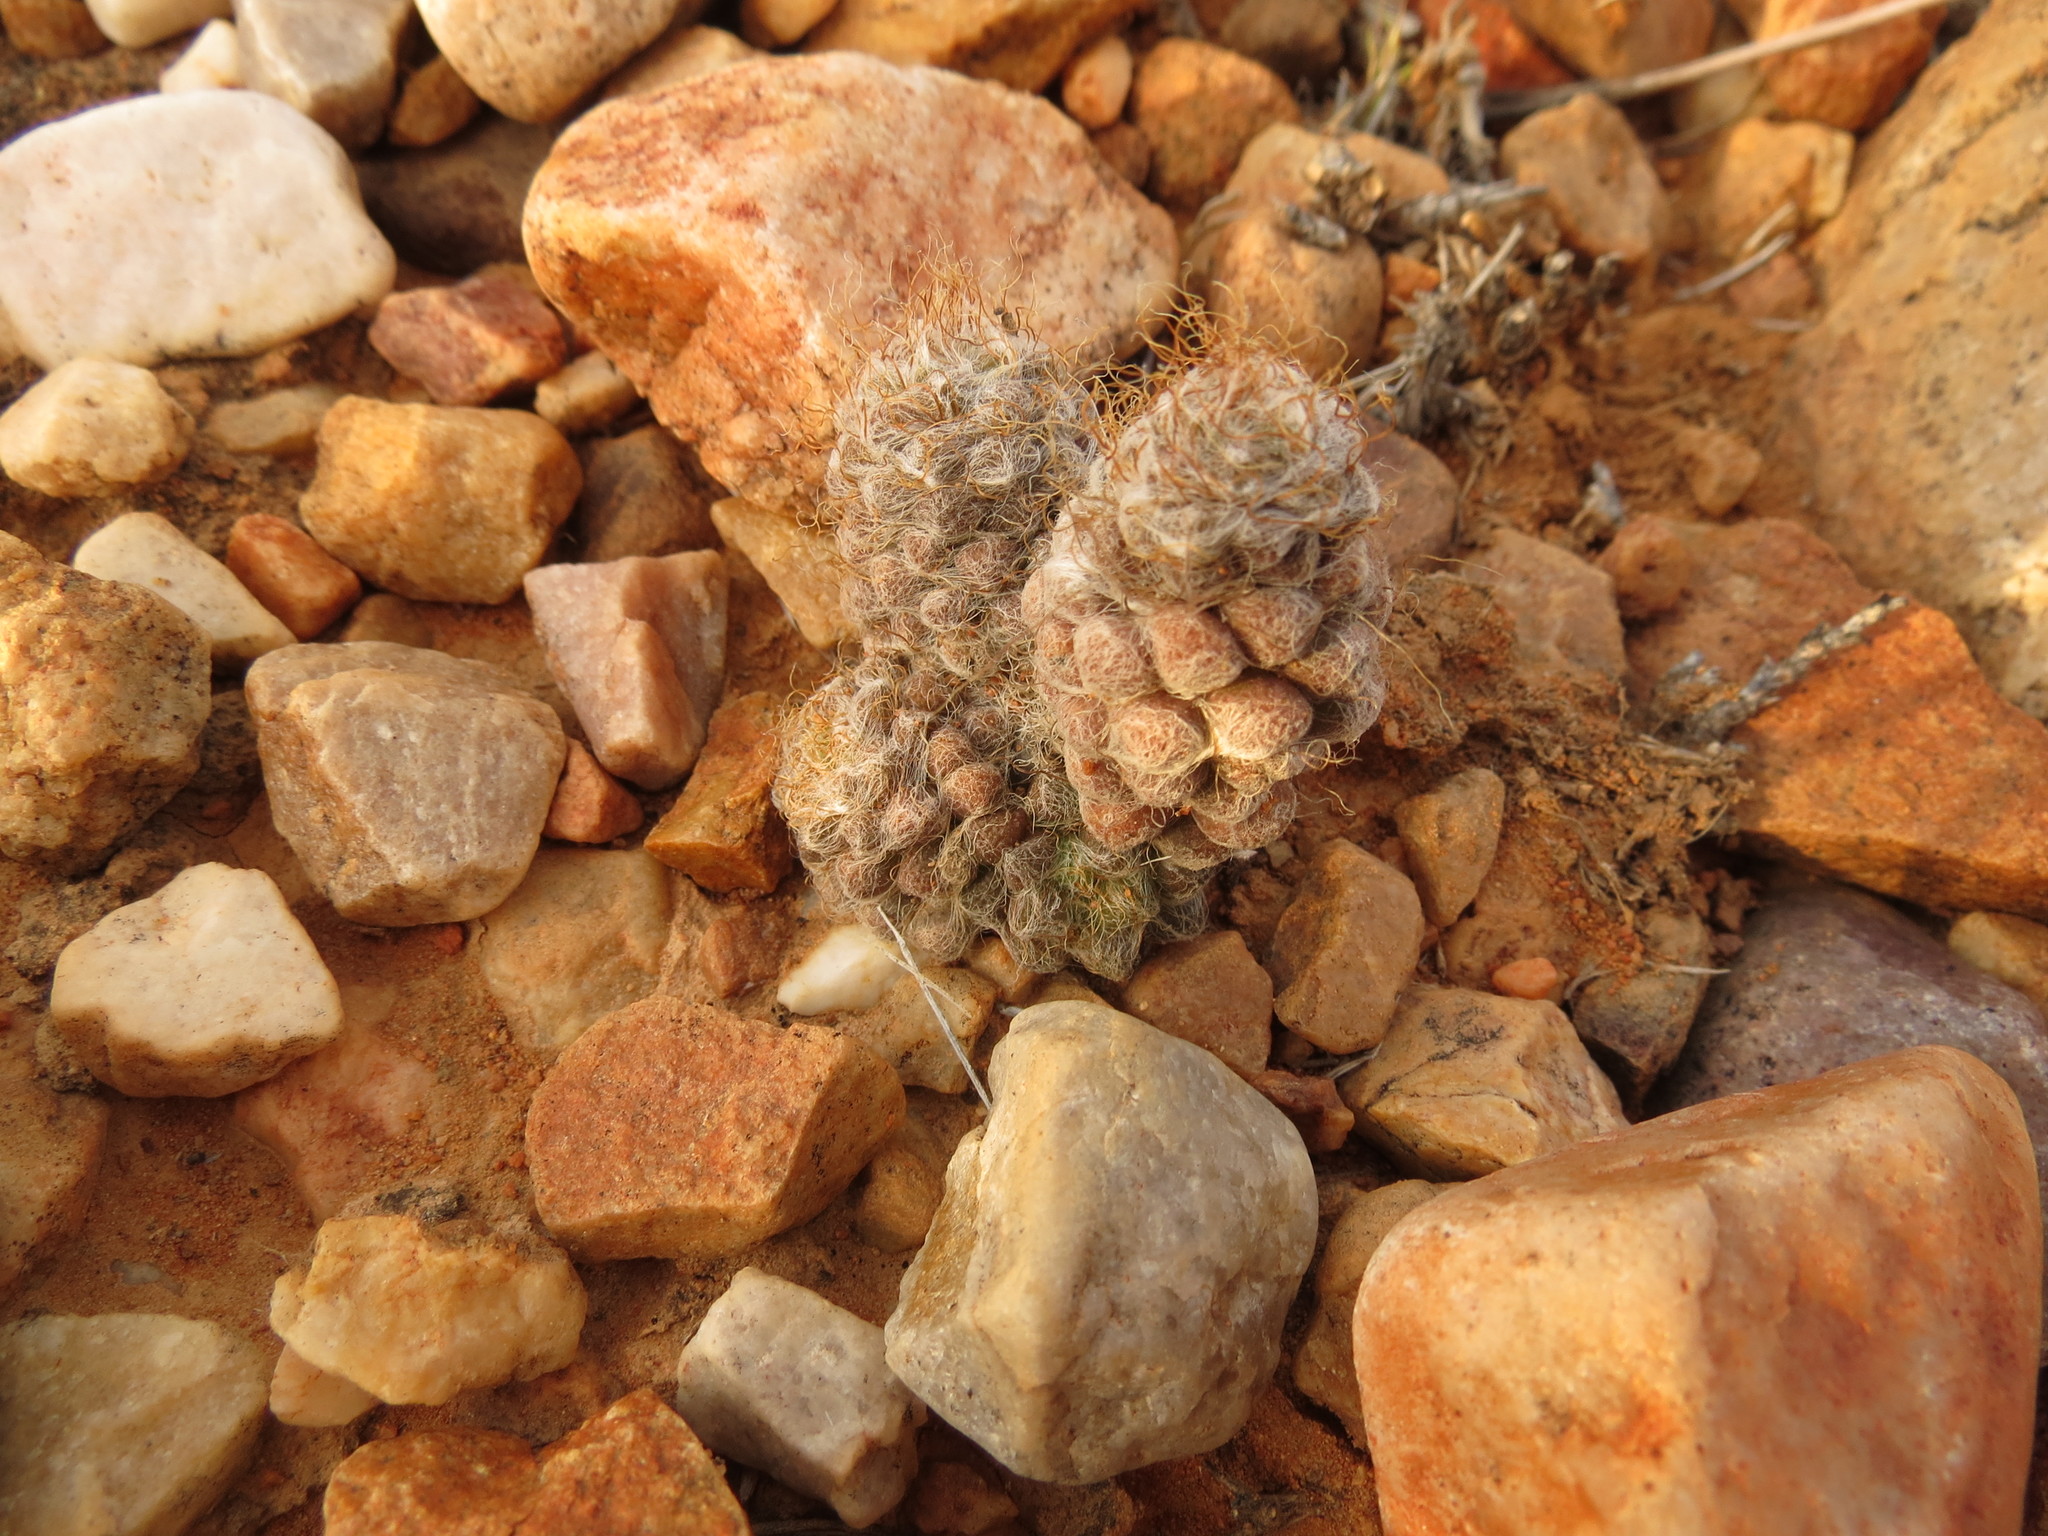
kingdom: Plantae
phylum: Tracheophyta
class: Magnoliopsida
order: Caryophyllales
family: Anacampserotaceae
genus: Anacampseros
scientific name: Anacampseros albidiflora
